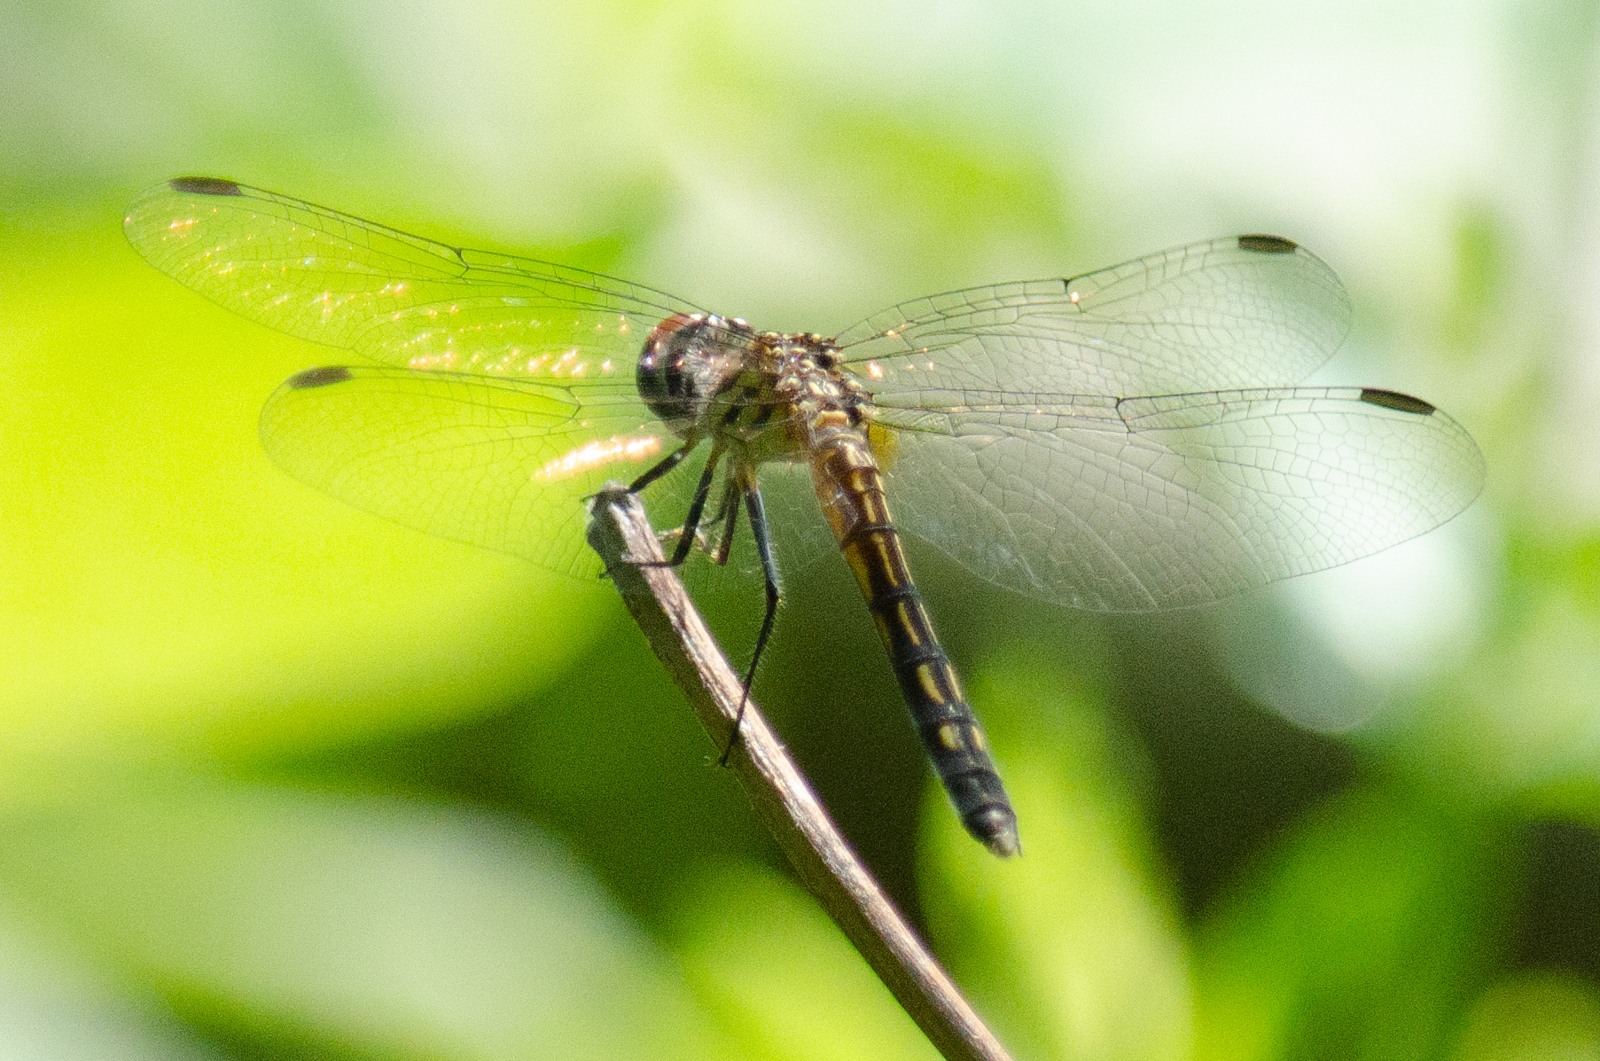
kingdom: Animalia
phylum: Arthropoda
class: Insecta
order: Odonata
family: Libellulidae
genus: Pachydiplax
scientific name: Pachydiplax longipennis
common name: Blue dasher
